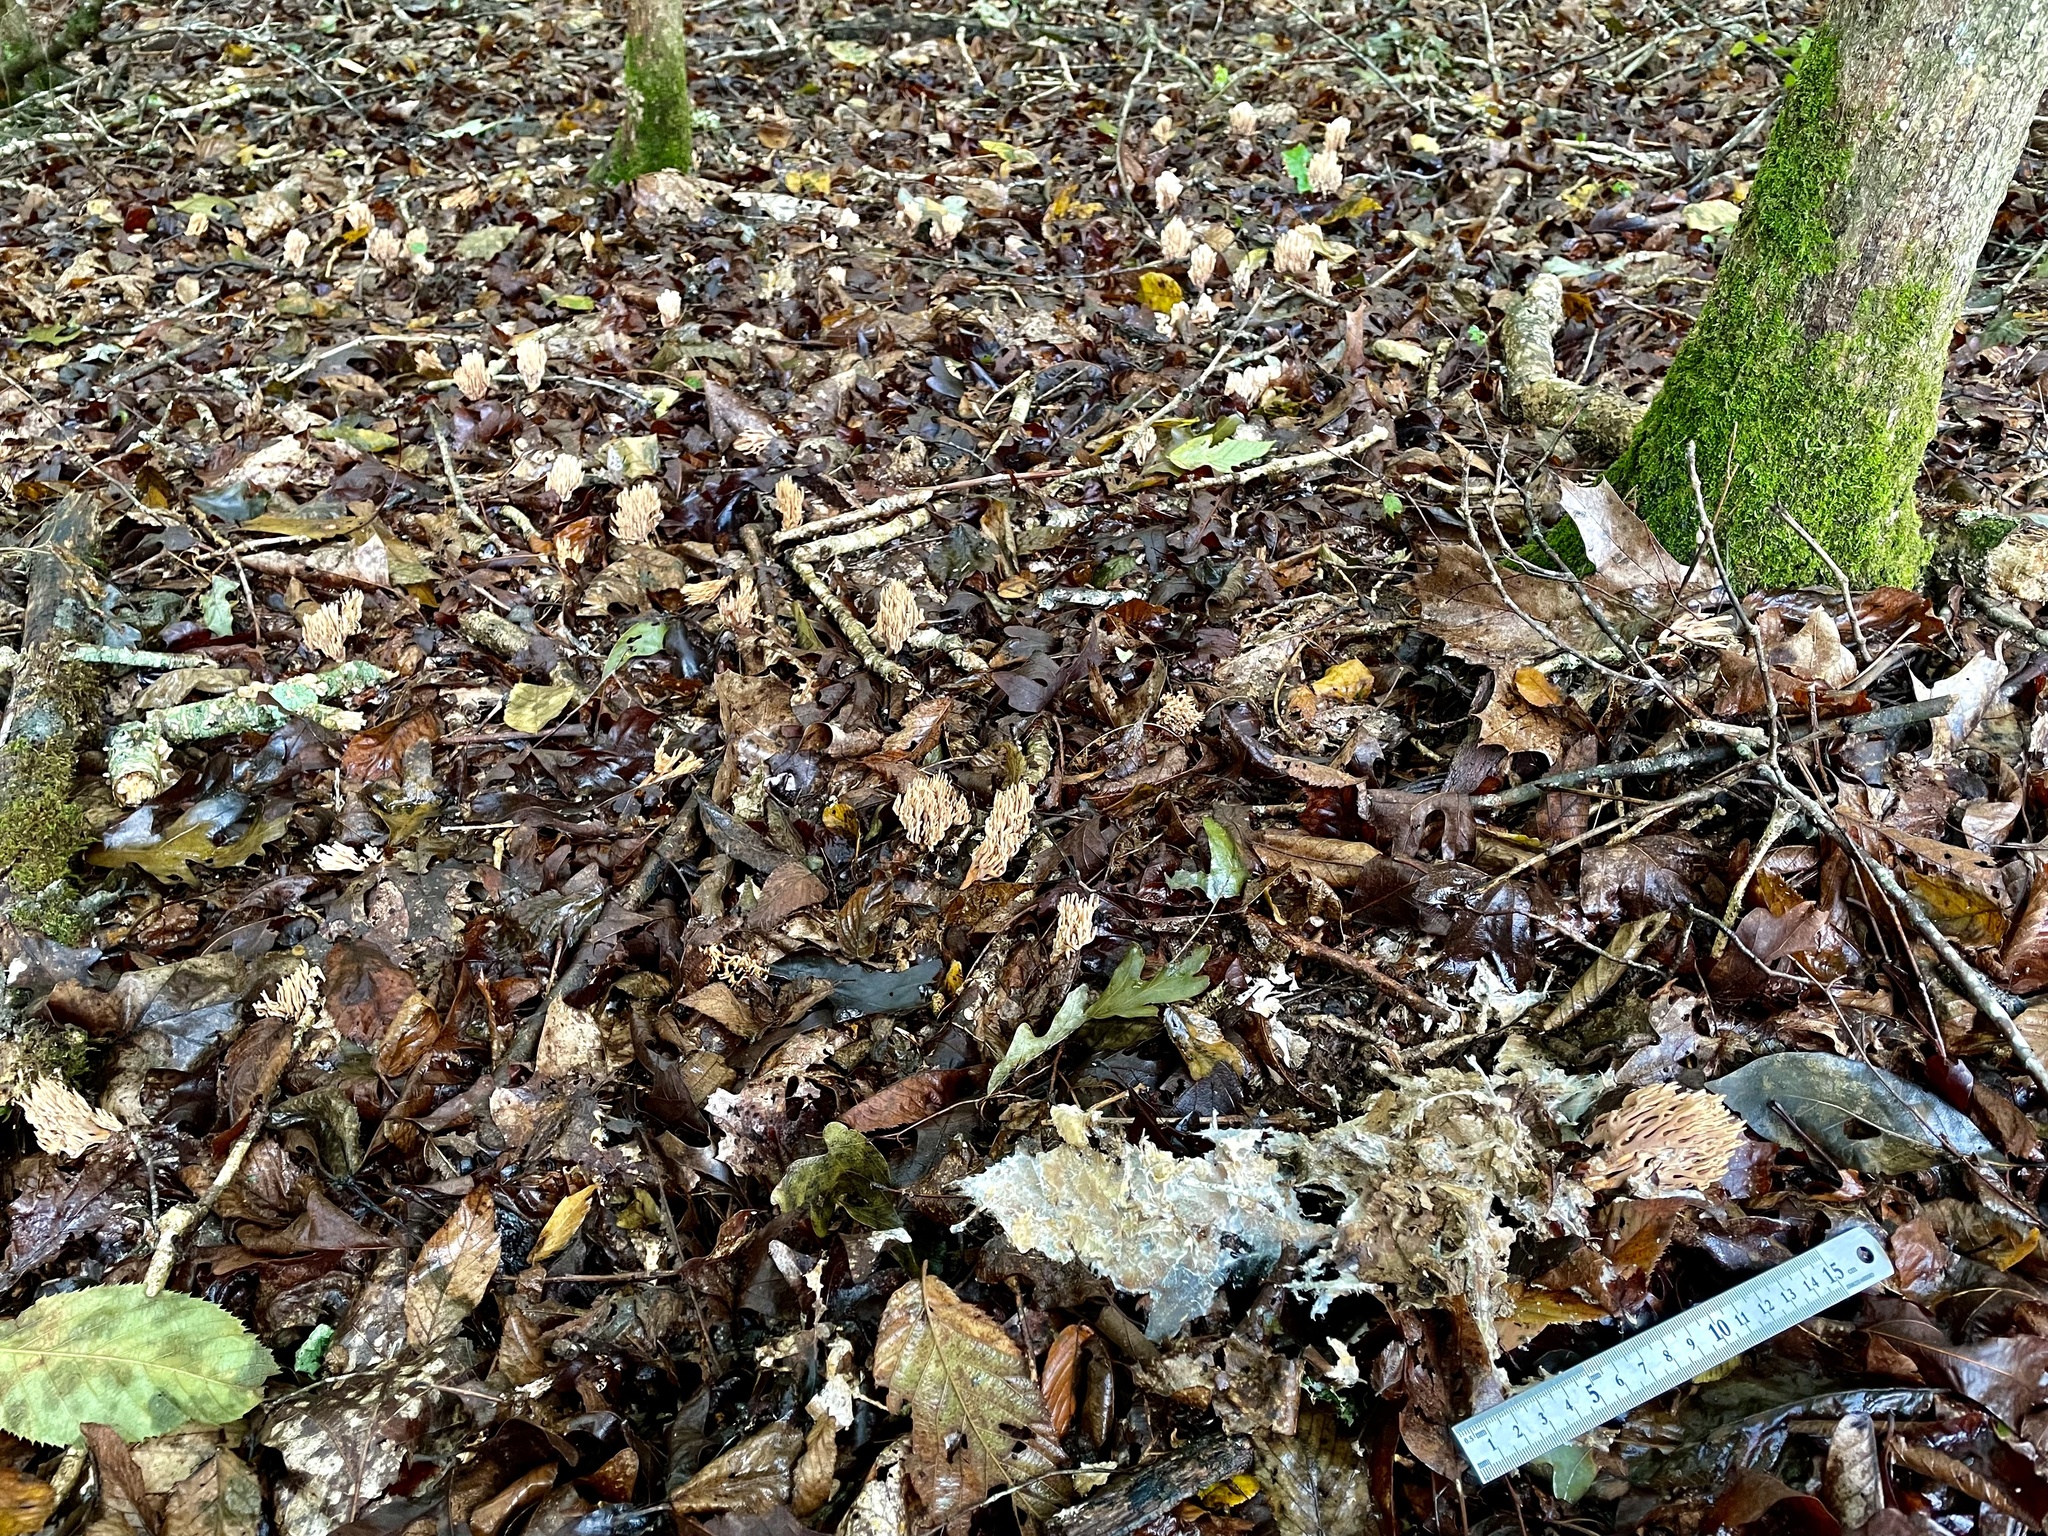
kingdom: Fungi
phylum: Basidiomycota
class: Agaricomycetes
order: Gomphales
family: Lentariaceae
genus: Lentaria
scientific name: Lentaria micheneri
